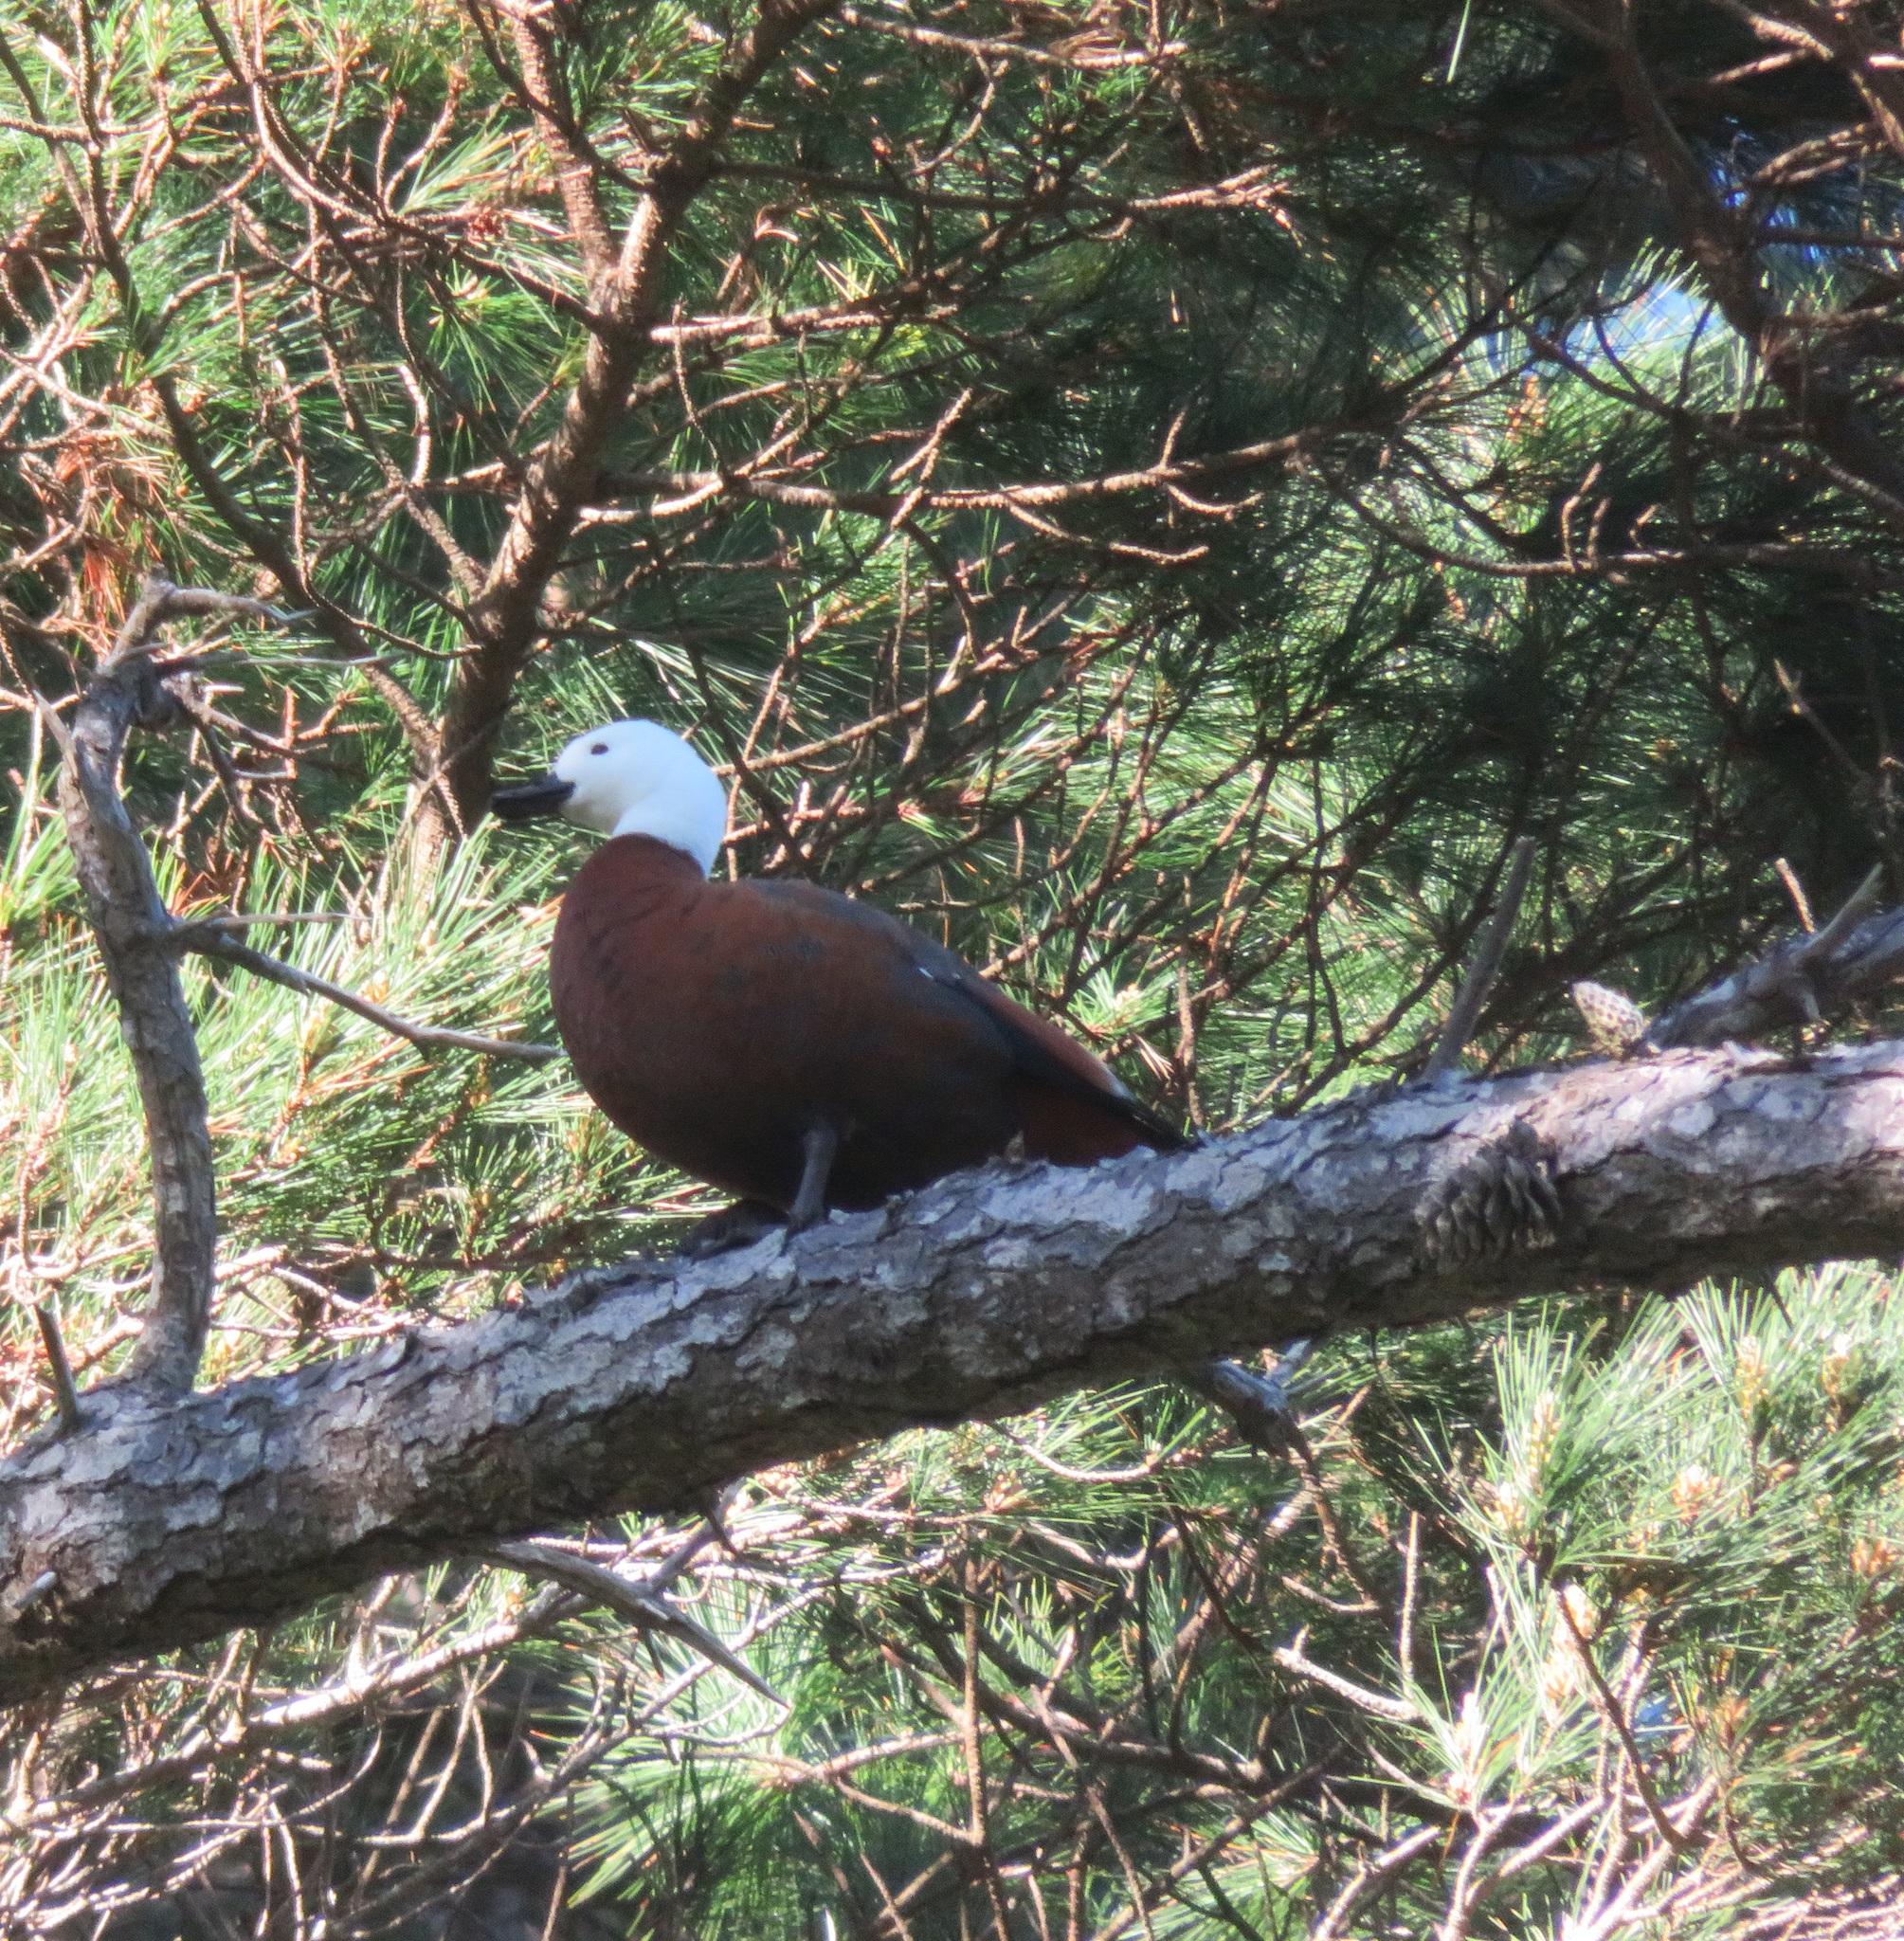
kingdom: Animalia
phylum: Chordata
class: Aves
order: Anseriformes
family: Anatidae
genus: Tadorna
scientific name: Tadorna variegata
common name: Paradise shelduck
